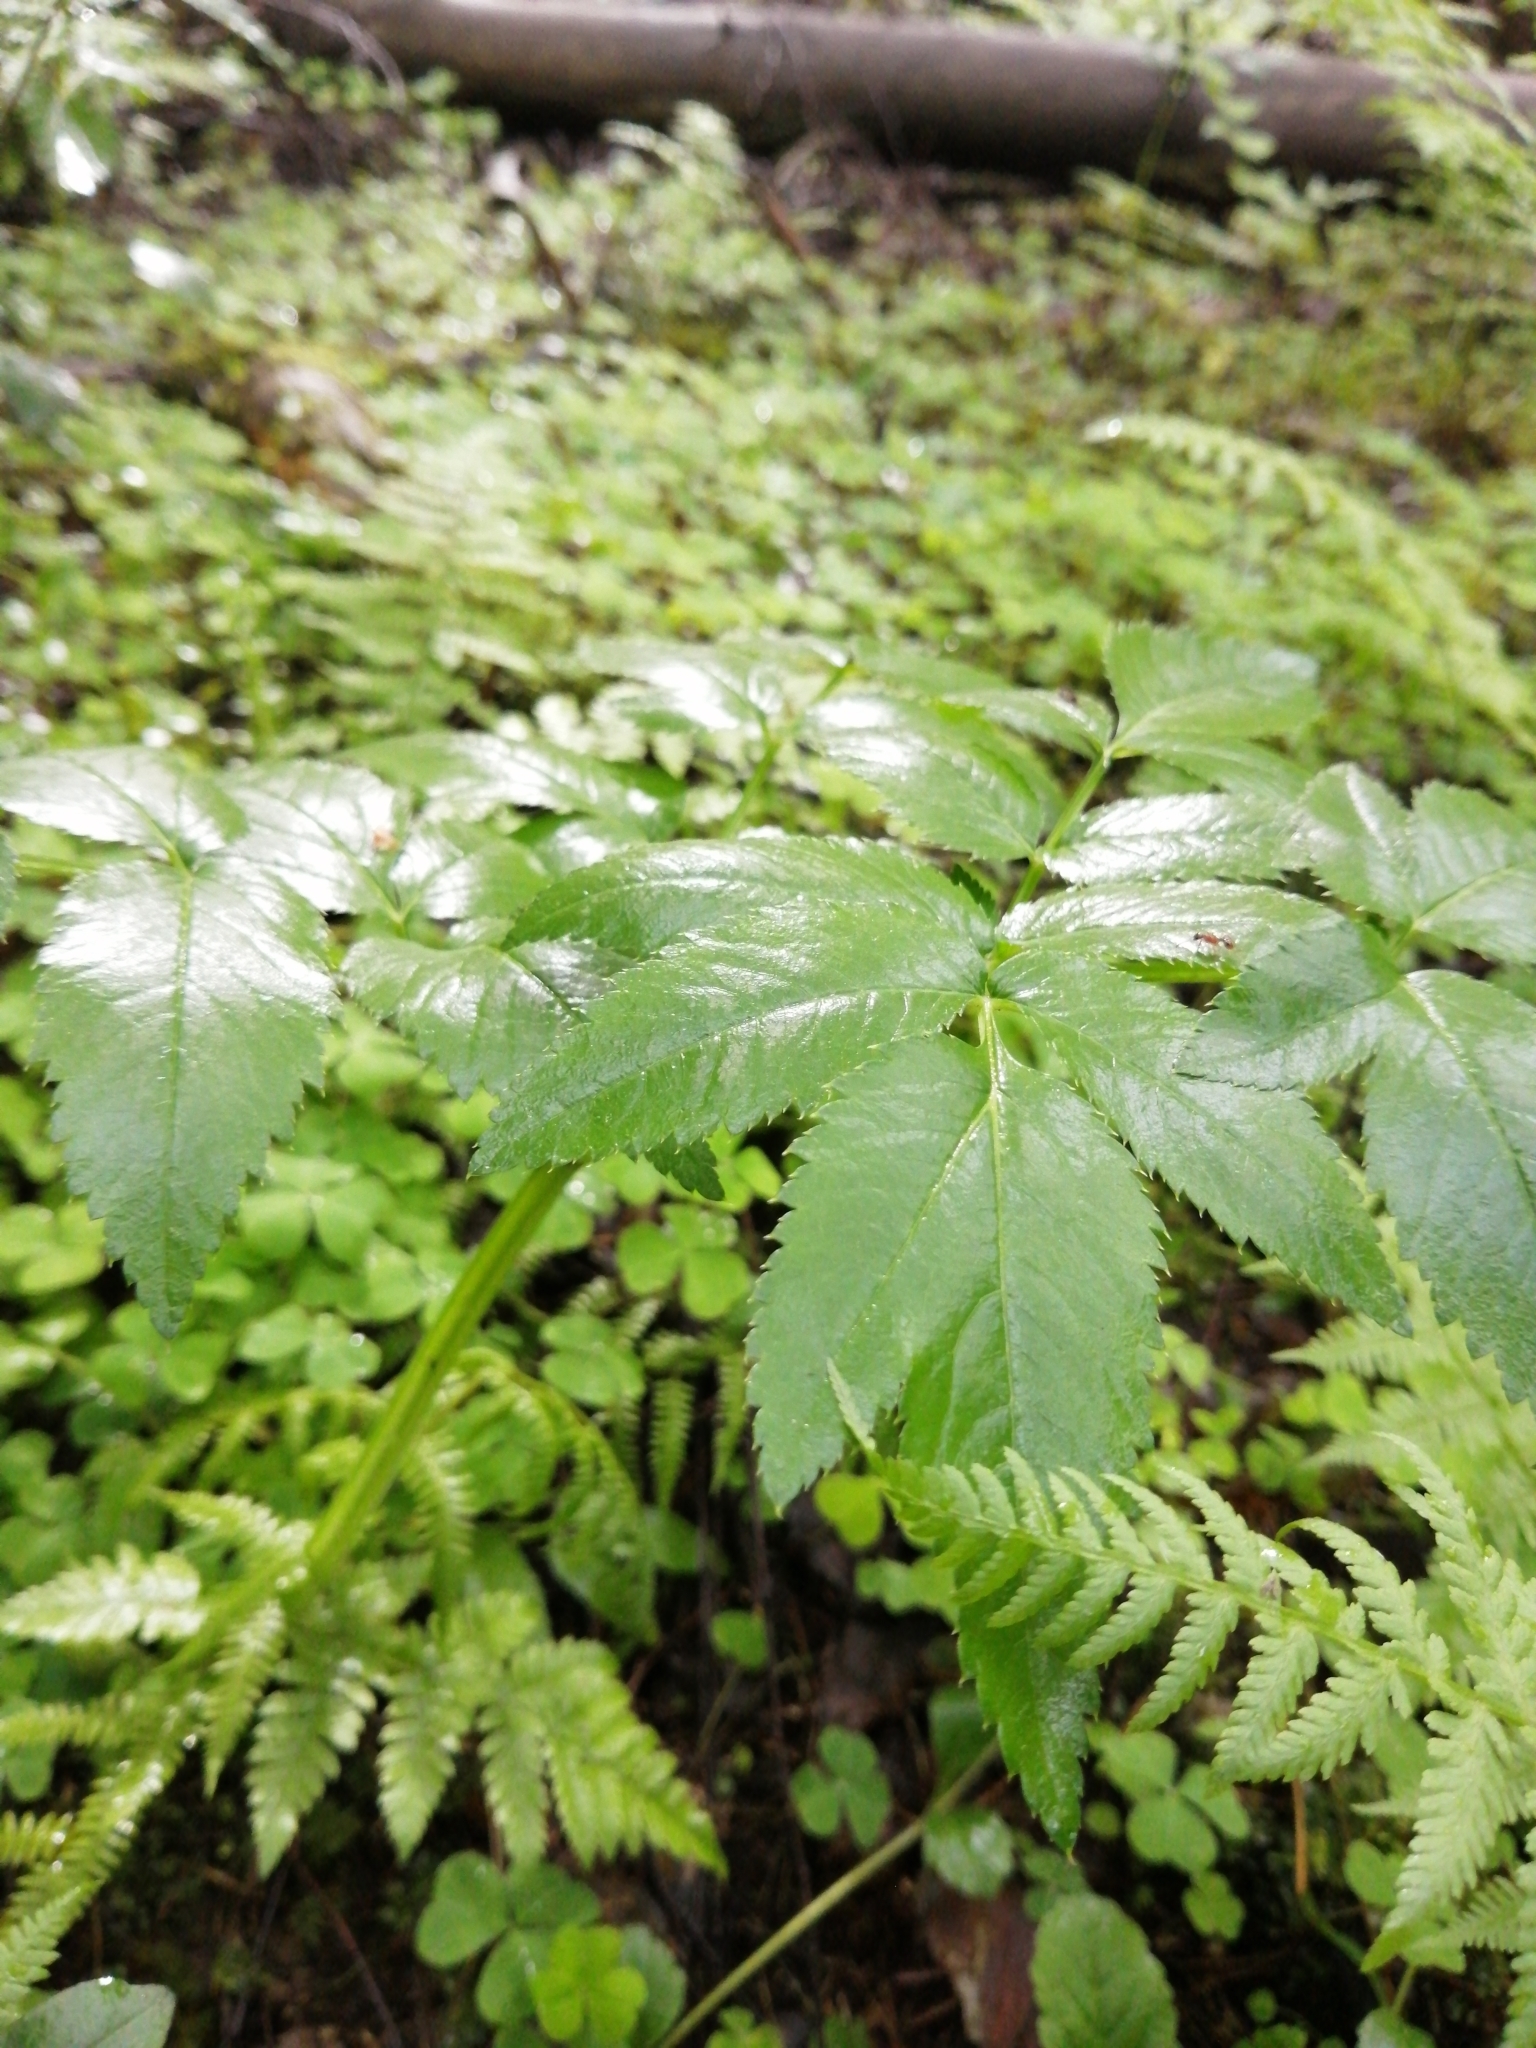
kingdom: Plantae
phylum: Tracheophyta
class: Magnoliopsida
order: Apiales
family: Apiaceae
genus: Angelica
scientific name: Angelica sylvestris
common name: Wild angelica
